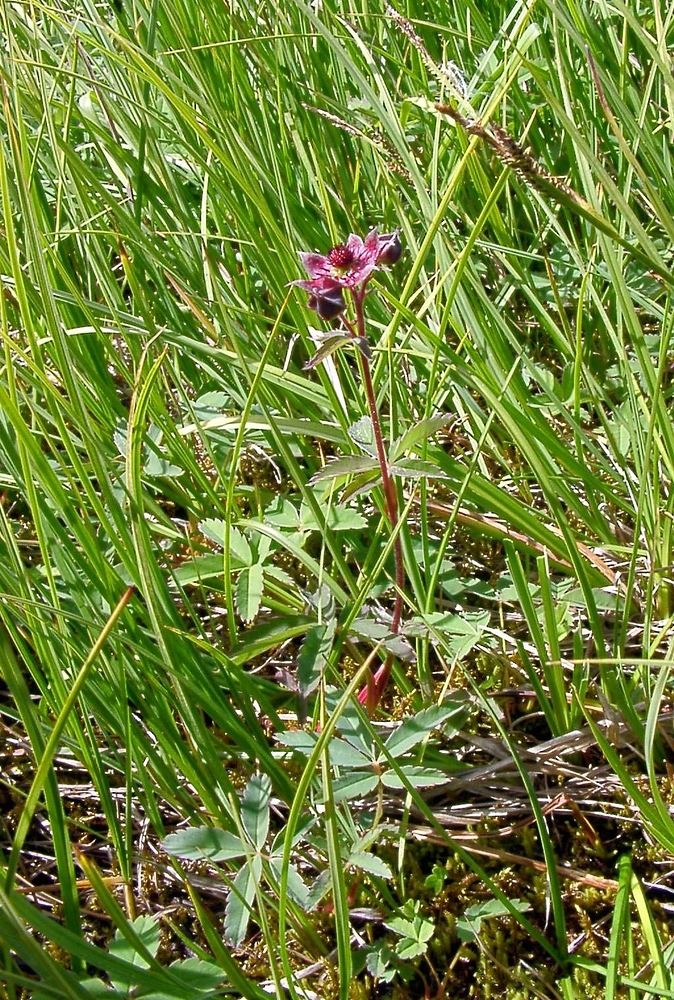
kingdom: Plantae
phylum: Tracheophyta
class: Magnoliopsida
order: Rosales
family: Rosaceae
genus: Comarum
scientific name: Comarum palustre
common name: Marsh cinquefoil
